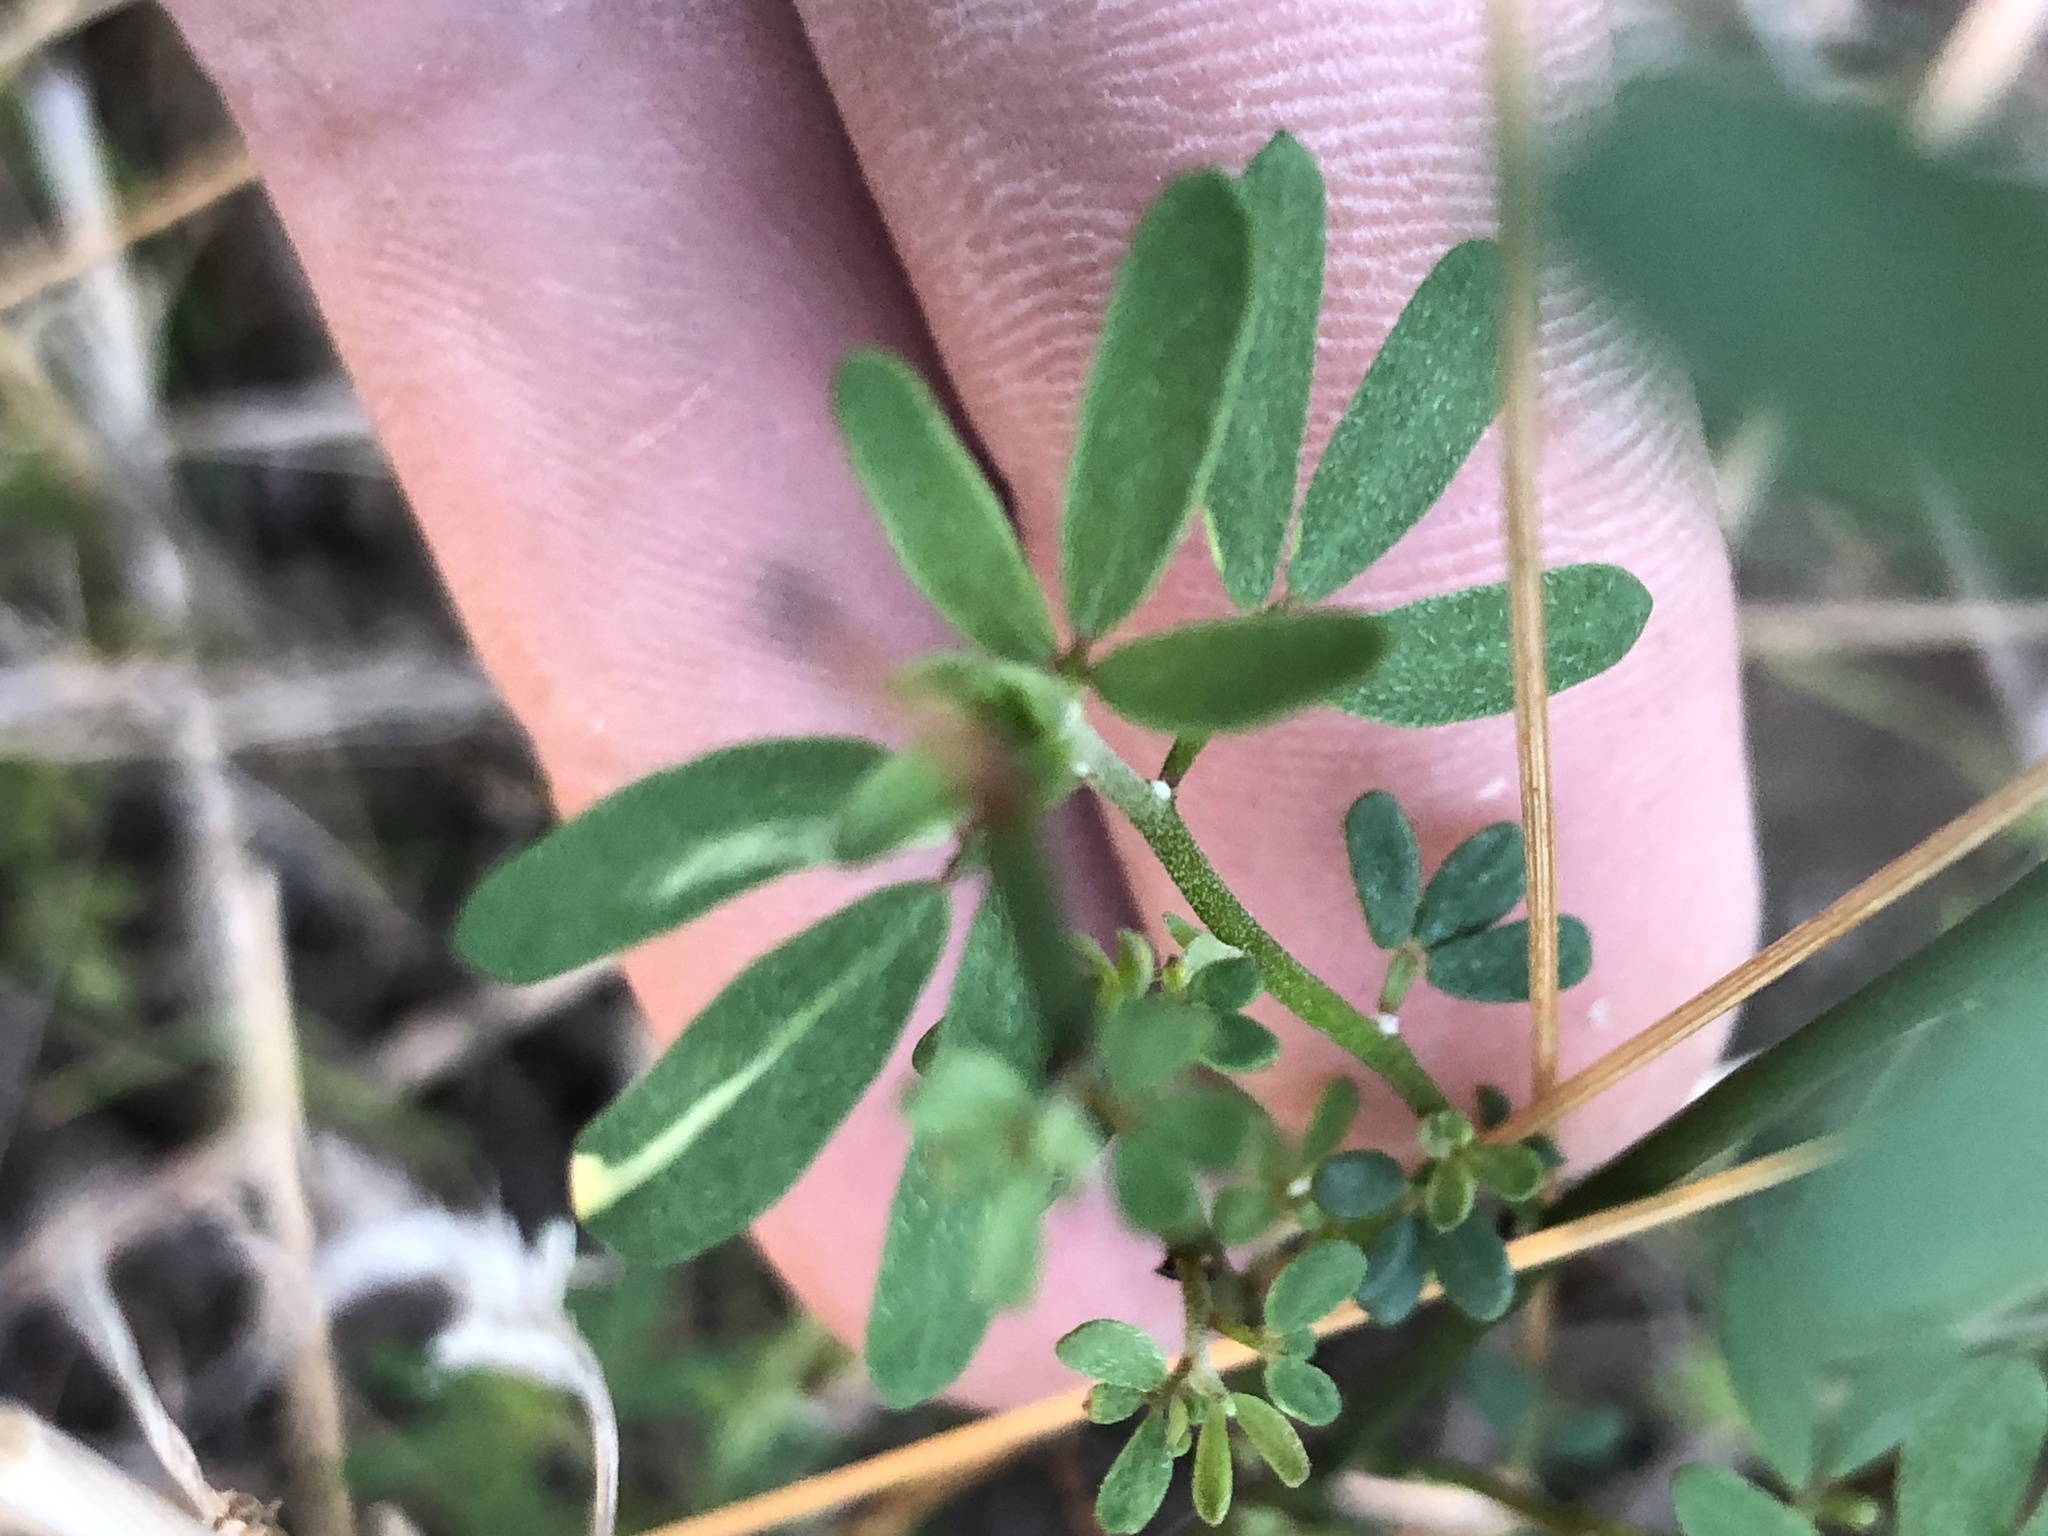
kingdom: Plantae
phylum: Tracheophyta
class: Magnoliopsida
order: Fabales
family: Fabaceae
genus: Acmispon
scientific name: Acmispon glaber
